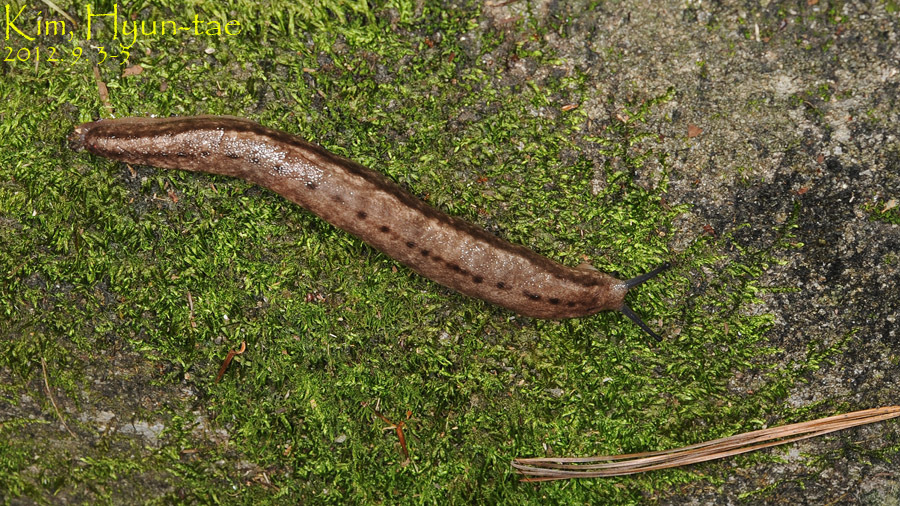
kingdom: Animalia
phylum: Mollusca
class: Gastropoda
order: Stylommatophora
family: Philomycidae
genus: Meghimatium
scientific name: Meghimatium fruhstorferi
